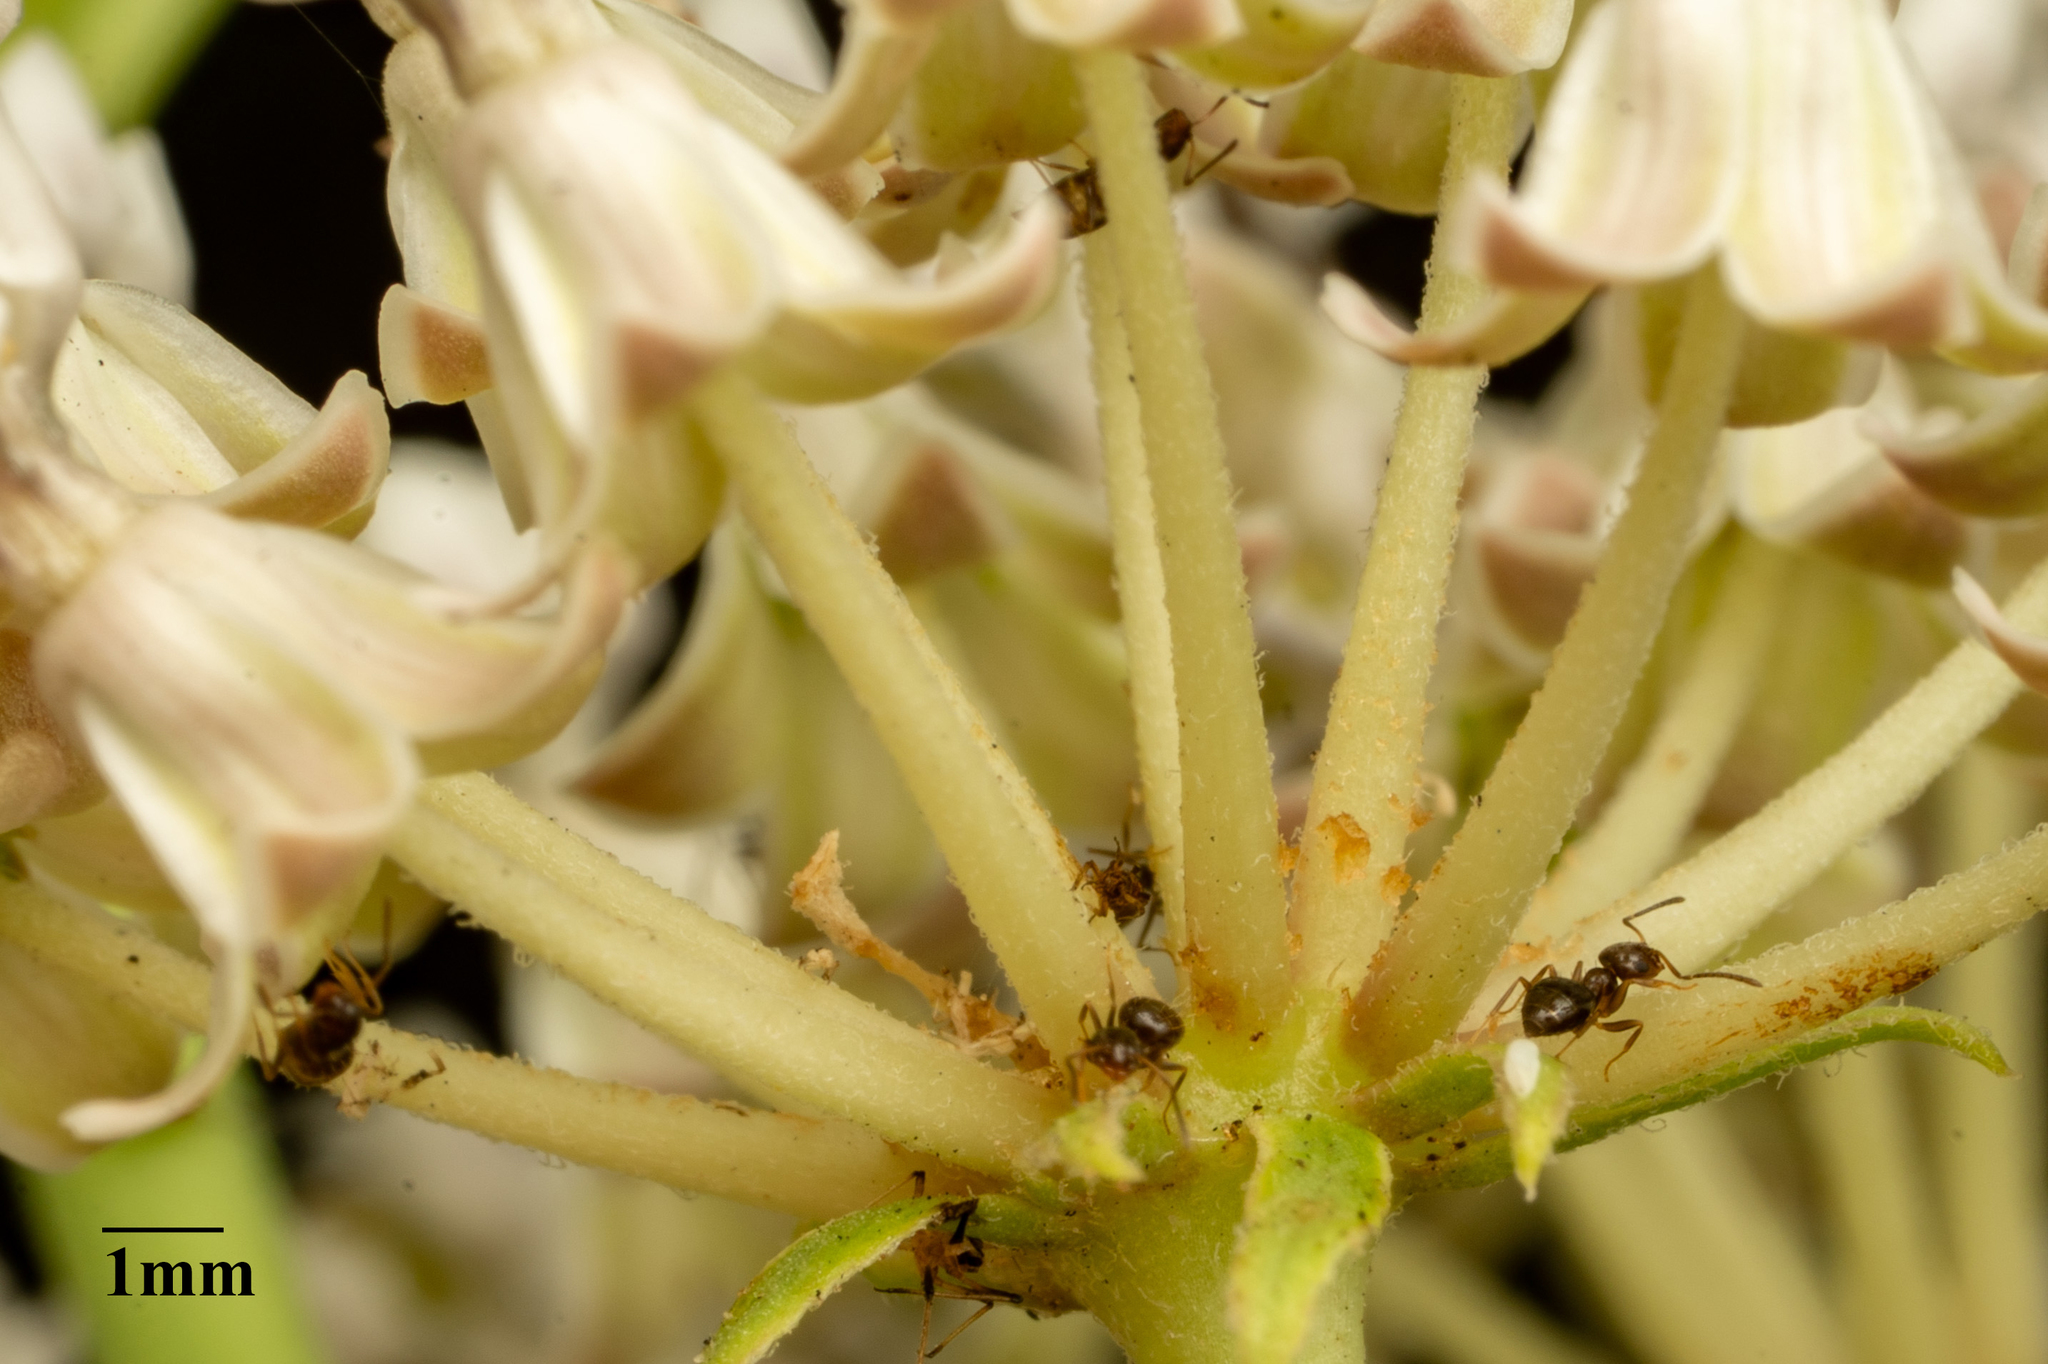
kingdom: Animalia
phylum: Arthropoda
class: Insecta
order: Hymenoptera
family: Formicidae
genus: Brachymyrmex
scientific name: Brachymyrmex patagonicus
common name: Dark rover ant
